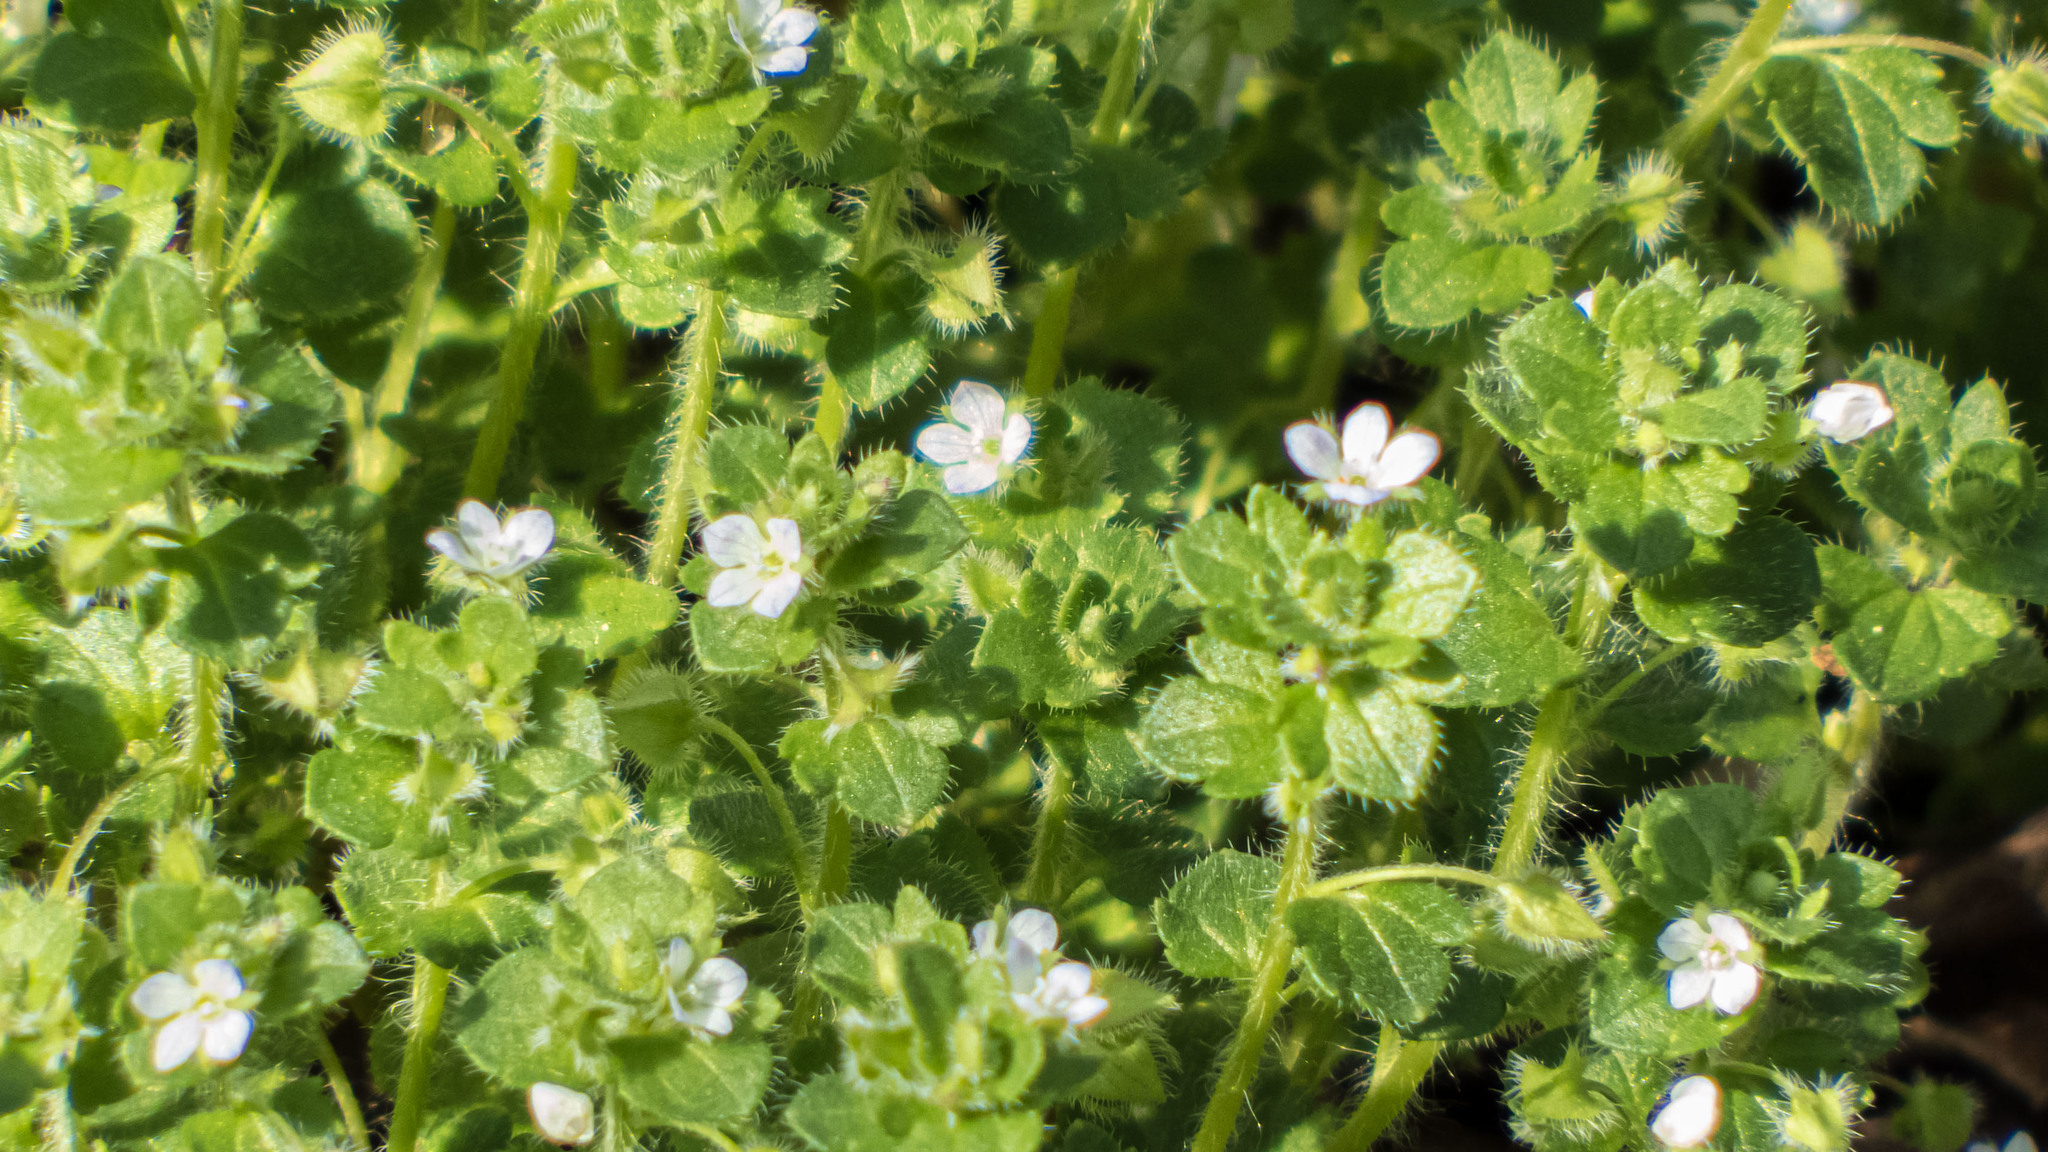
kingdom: Plantae
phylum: Tracheophyta
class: Magnoliopsida
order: Lamiales
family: Plantaginaceae
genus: Veronica
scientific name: Veronica hederifolia
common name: Ivy-leaved speedwell
